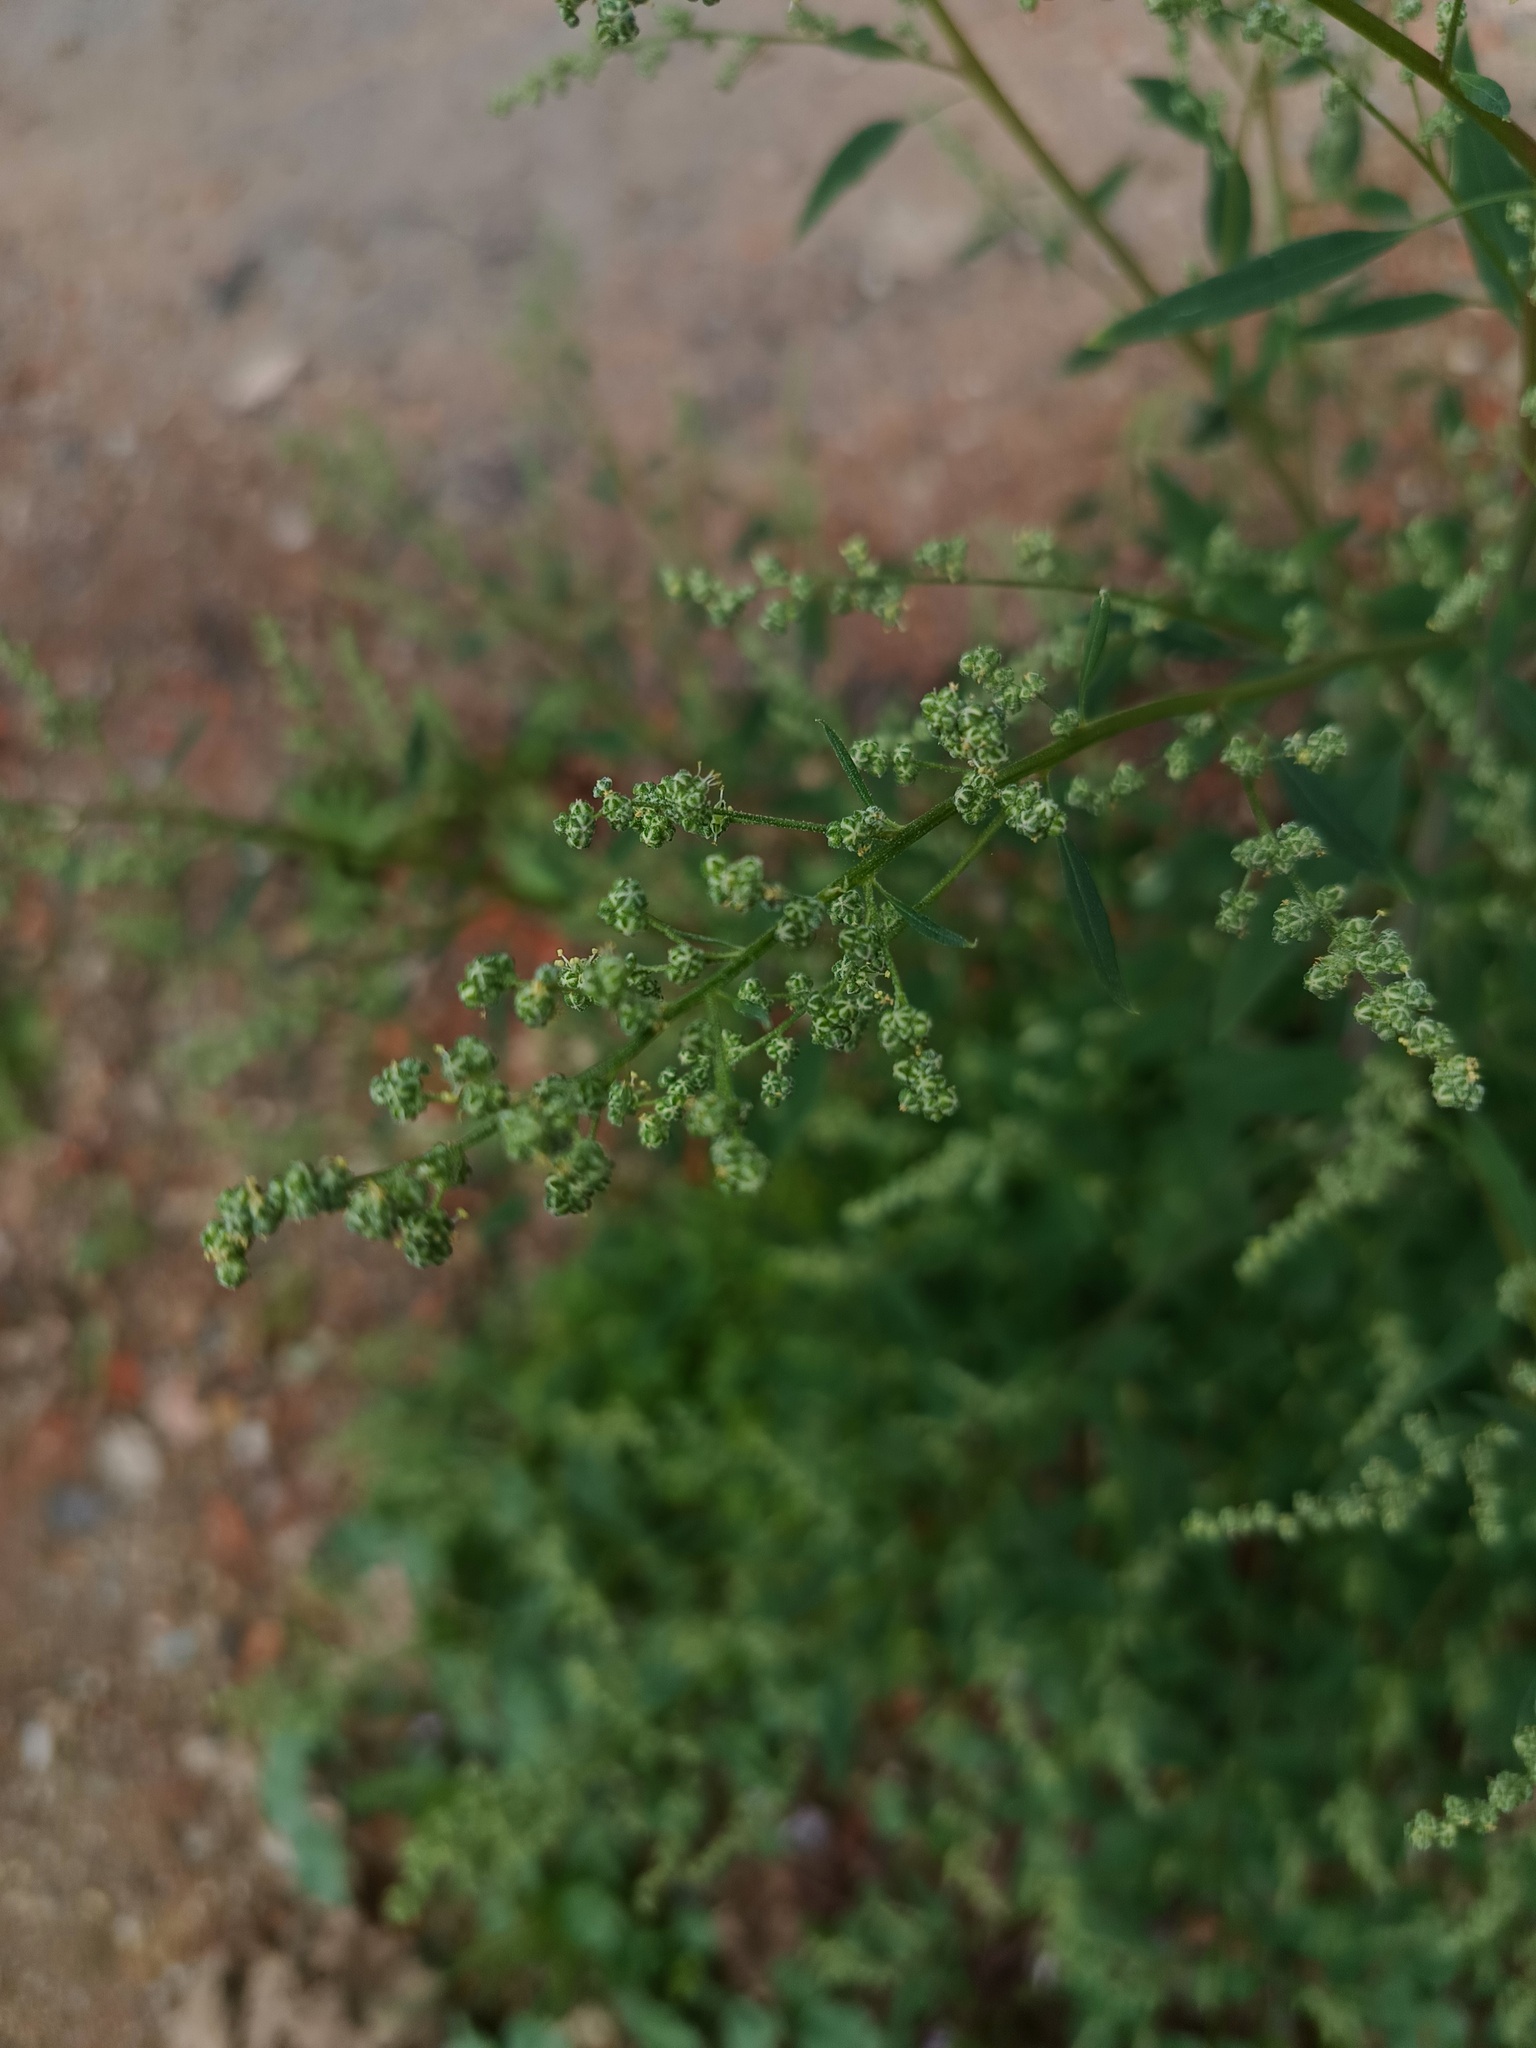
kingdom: Plantae
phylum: Tracheophyta
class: Magnoliopsida
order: Caryophyllales
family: Amaranthaceae
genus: Chenopodium
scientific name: Chenopodium album
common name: Fat-hen
